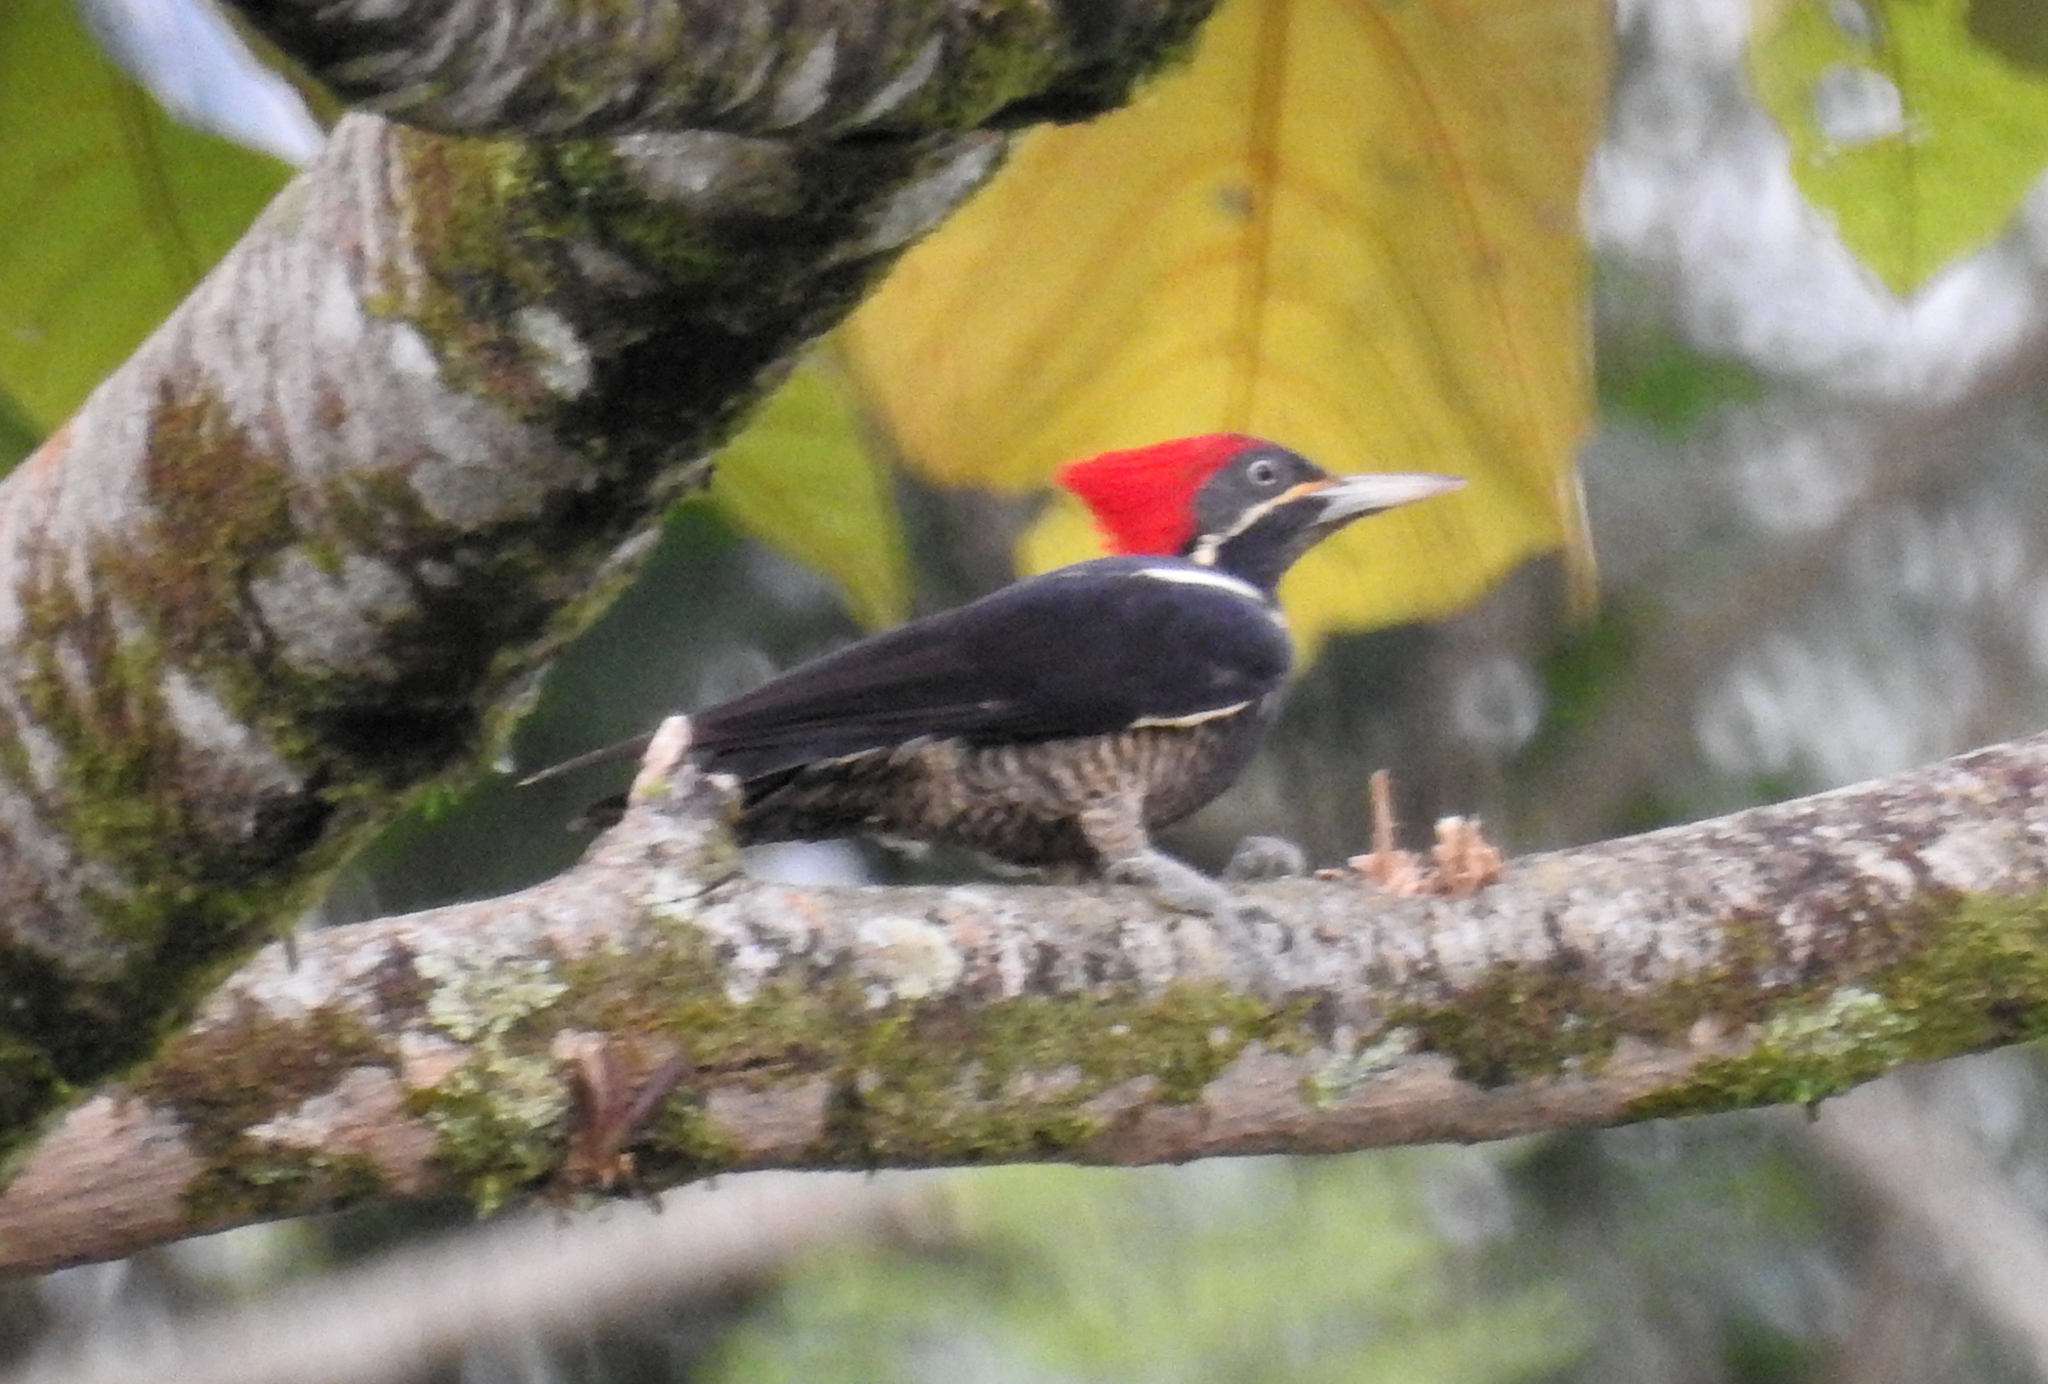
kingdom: Animalia
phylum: Chordata
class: Aves
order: Piciformes
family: Picidae
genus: Dryocopus
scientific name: Dryocopus lineatus
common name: Lineated woodpecker
